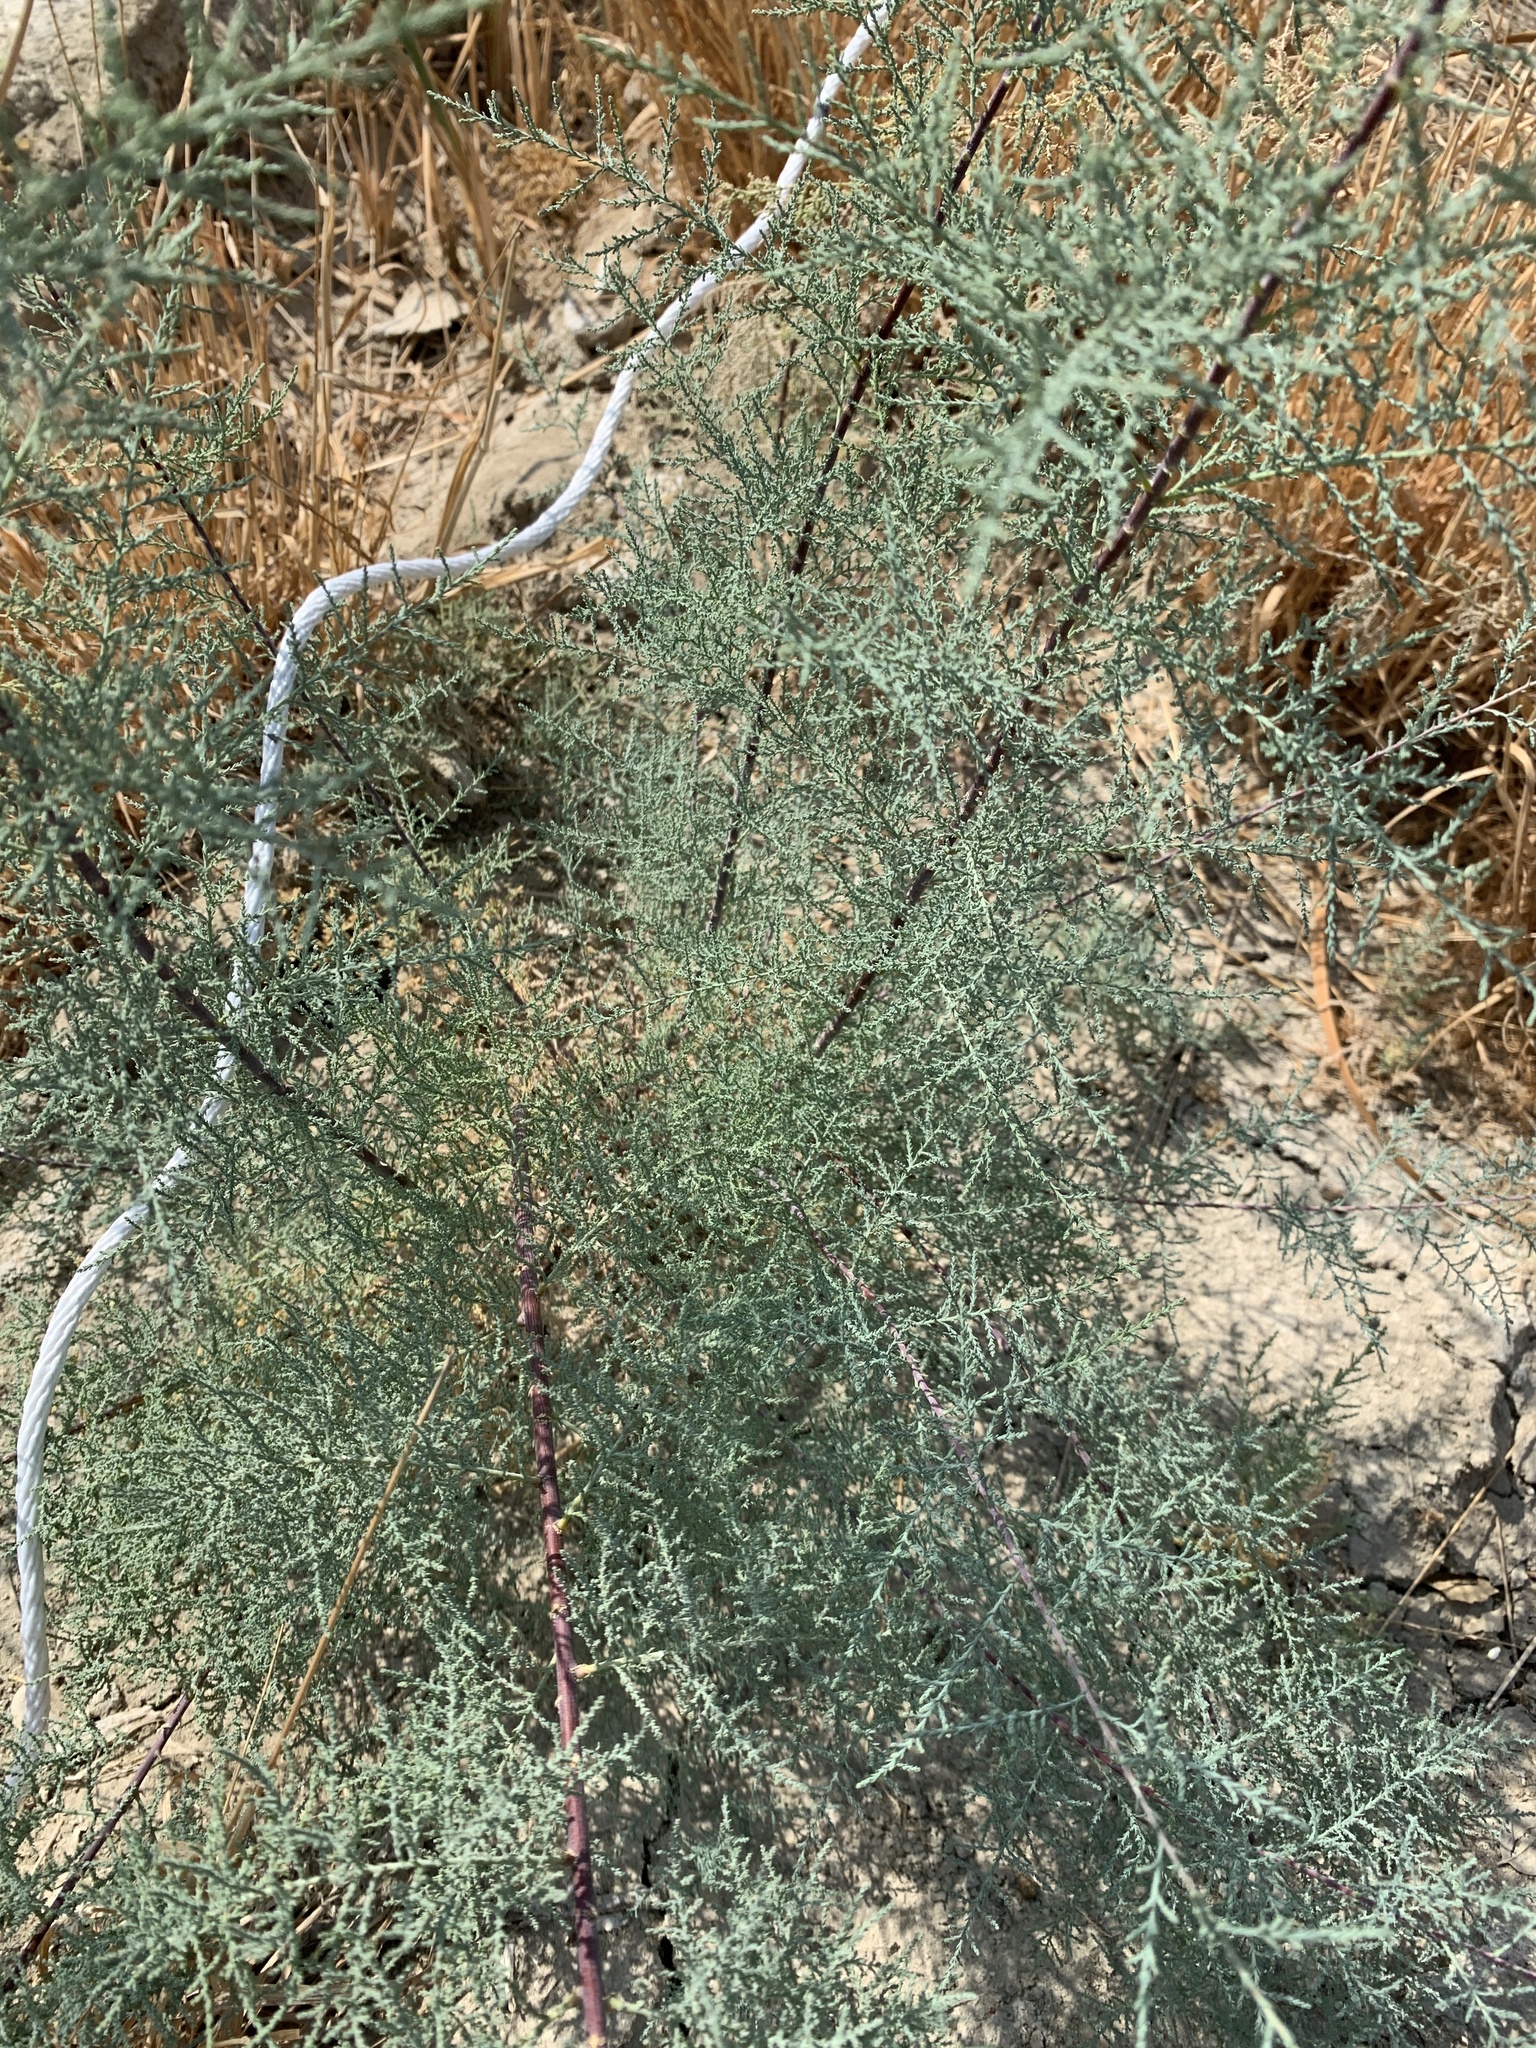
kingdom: Plantae
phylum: Tracheophyta
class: Magnoliopsida
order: Caryophyllales
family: Tamaricaceae
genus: Tamarix
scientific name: Tamarix
